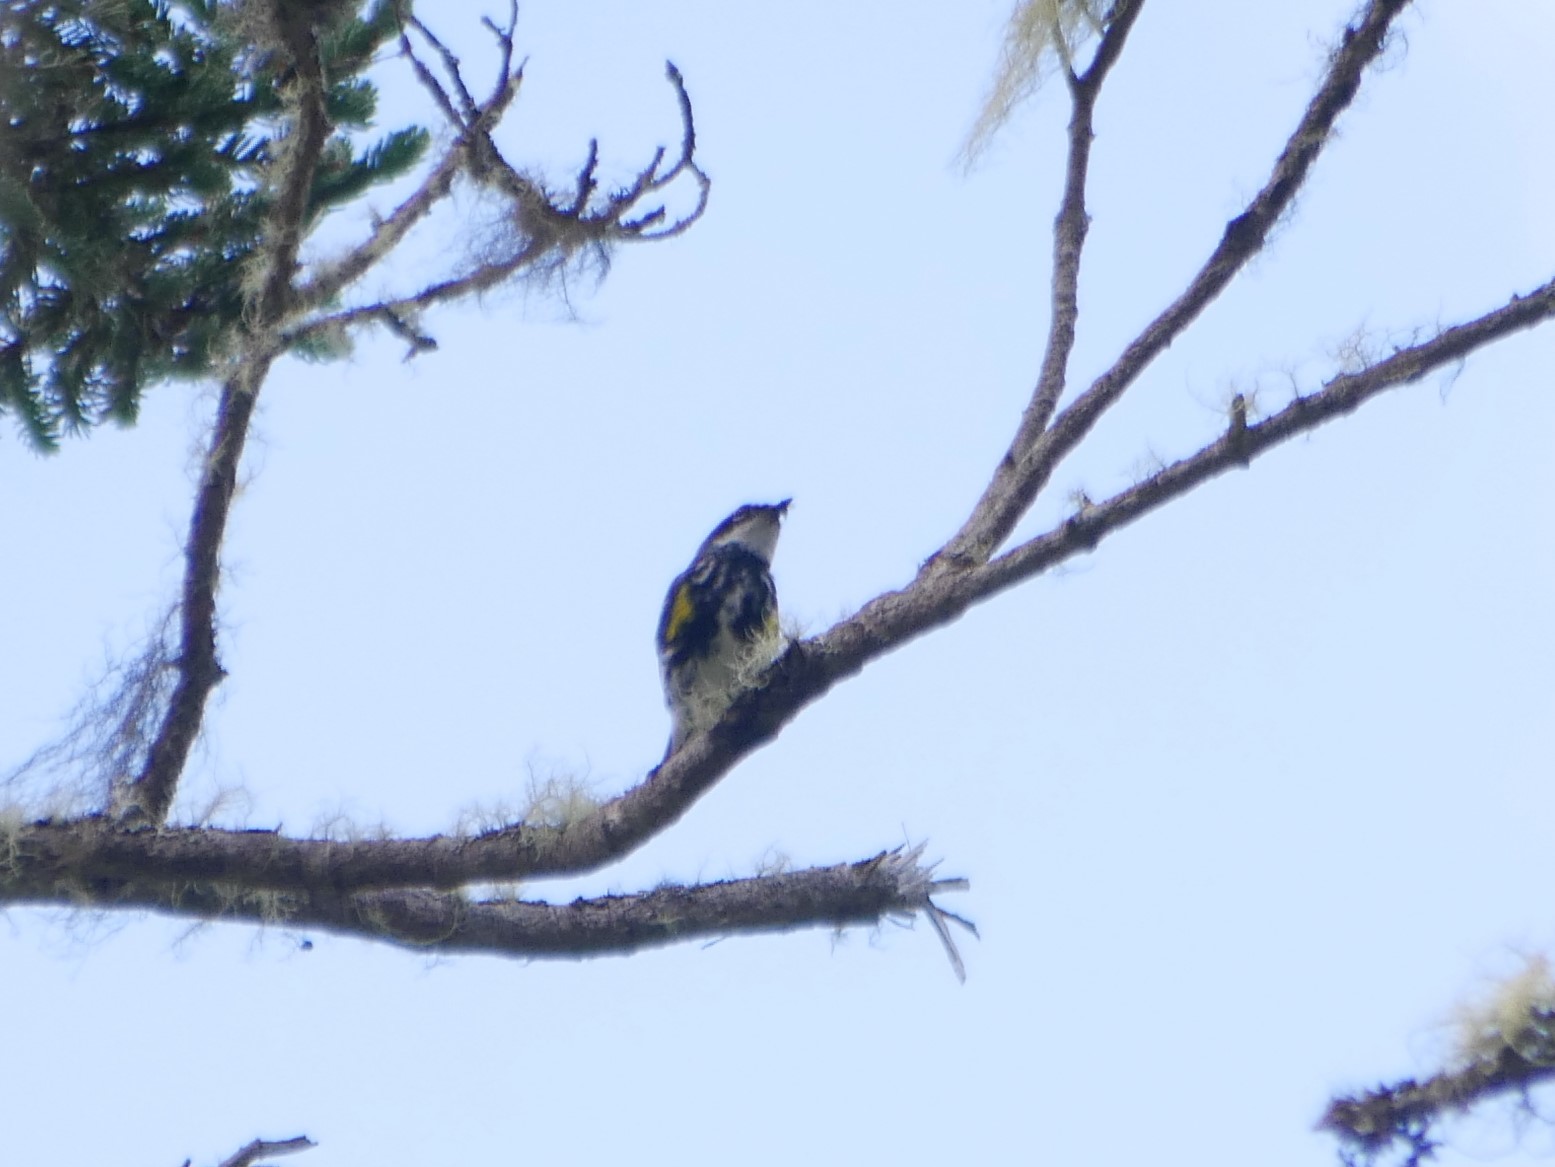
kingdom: Animalia
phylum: Chordata
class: Aves
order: Passeriformes
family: Parulidae
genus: Setophaga
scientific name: Setophaga coronata
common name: Myrtle warbler
